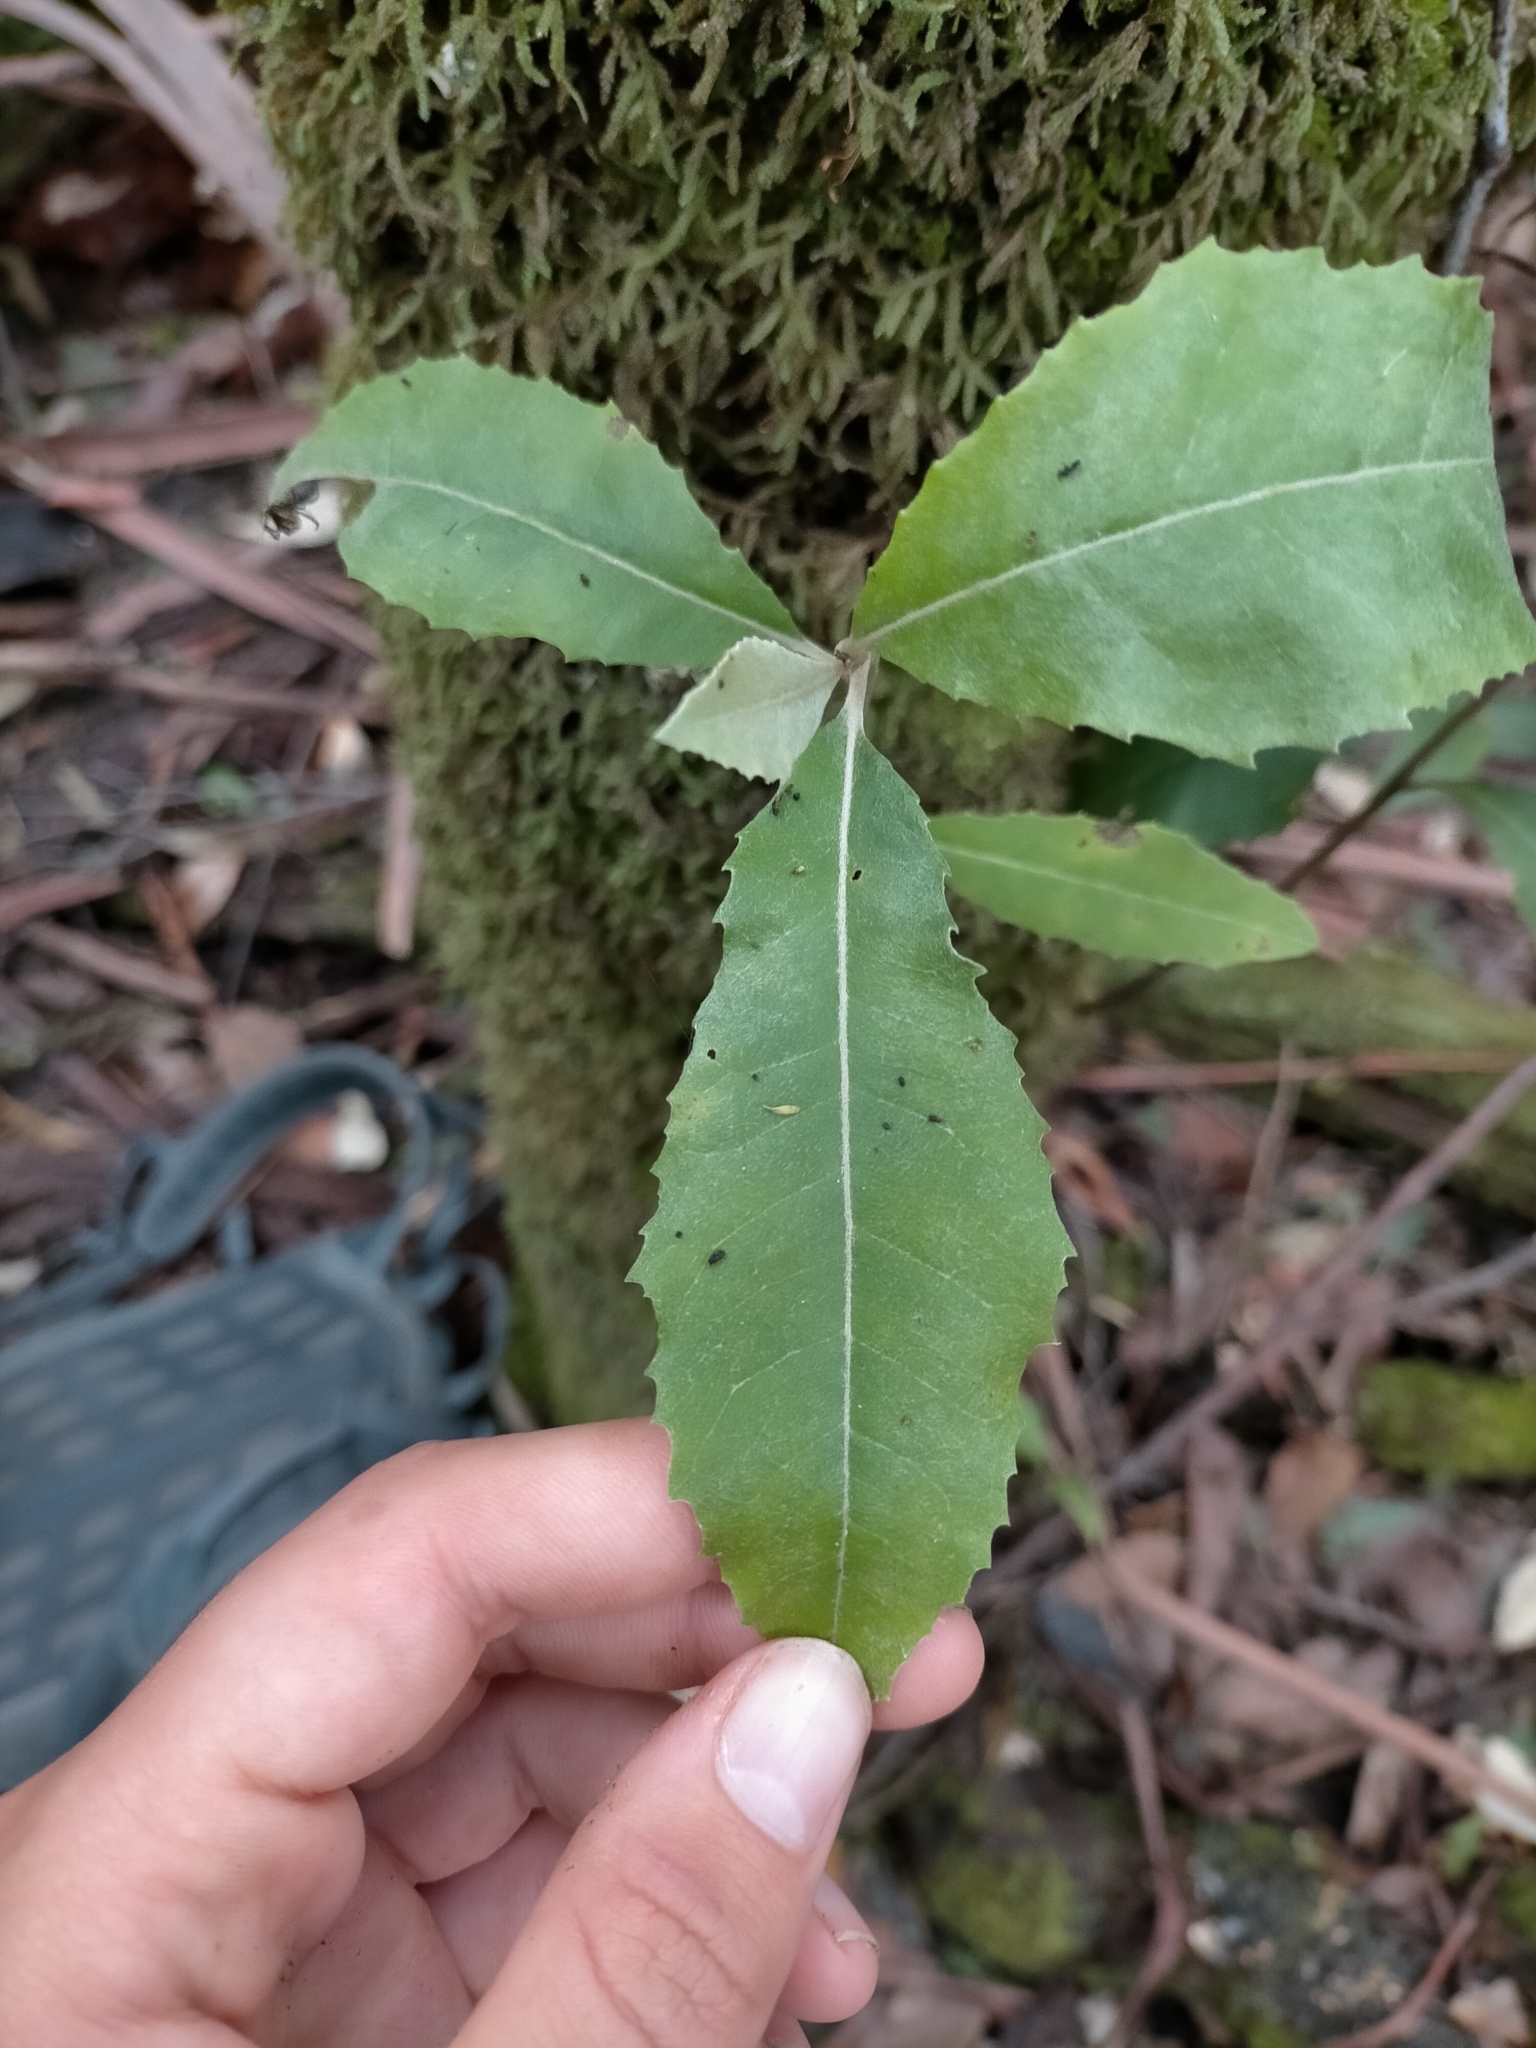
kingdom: Plantae
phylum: Tracheophyta
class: Magnoliopsida
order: Asterales
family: Asteraceae
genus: Olearia
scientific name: Olearia argophylla
